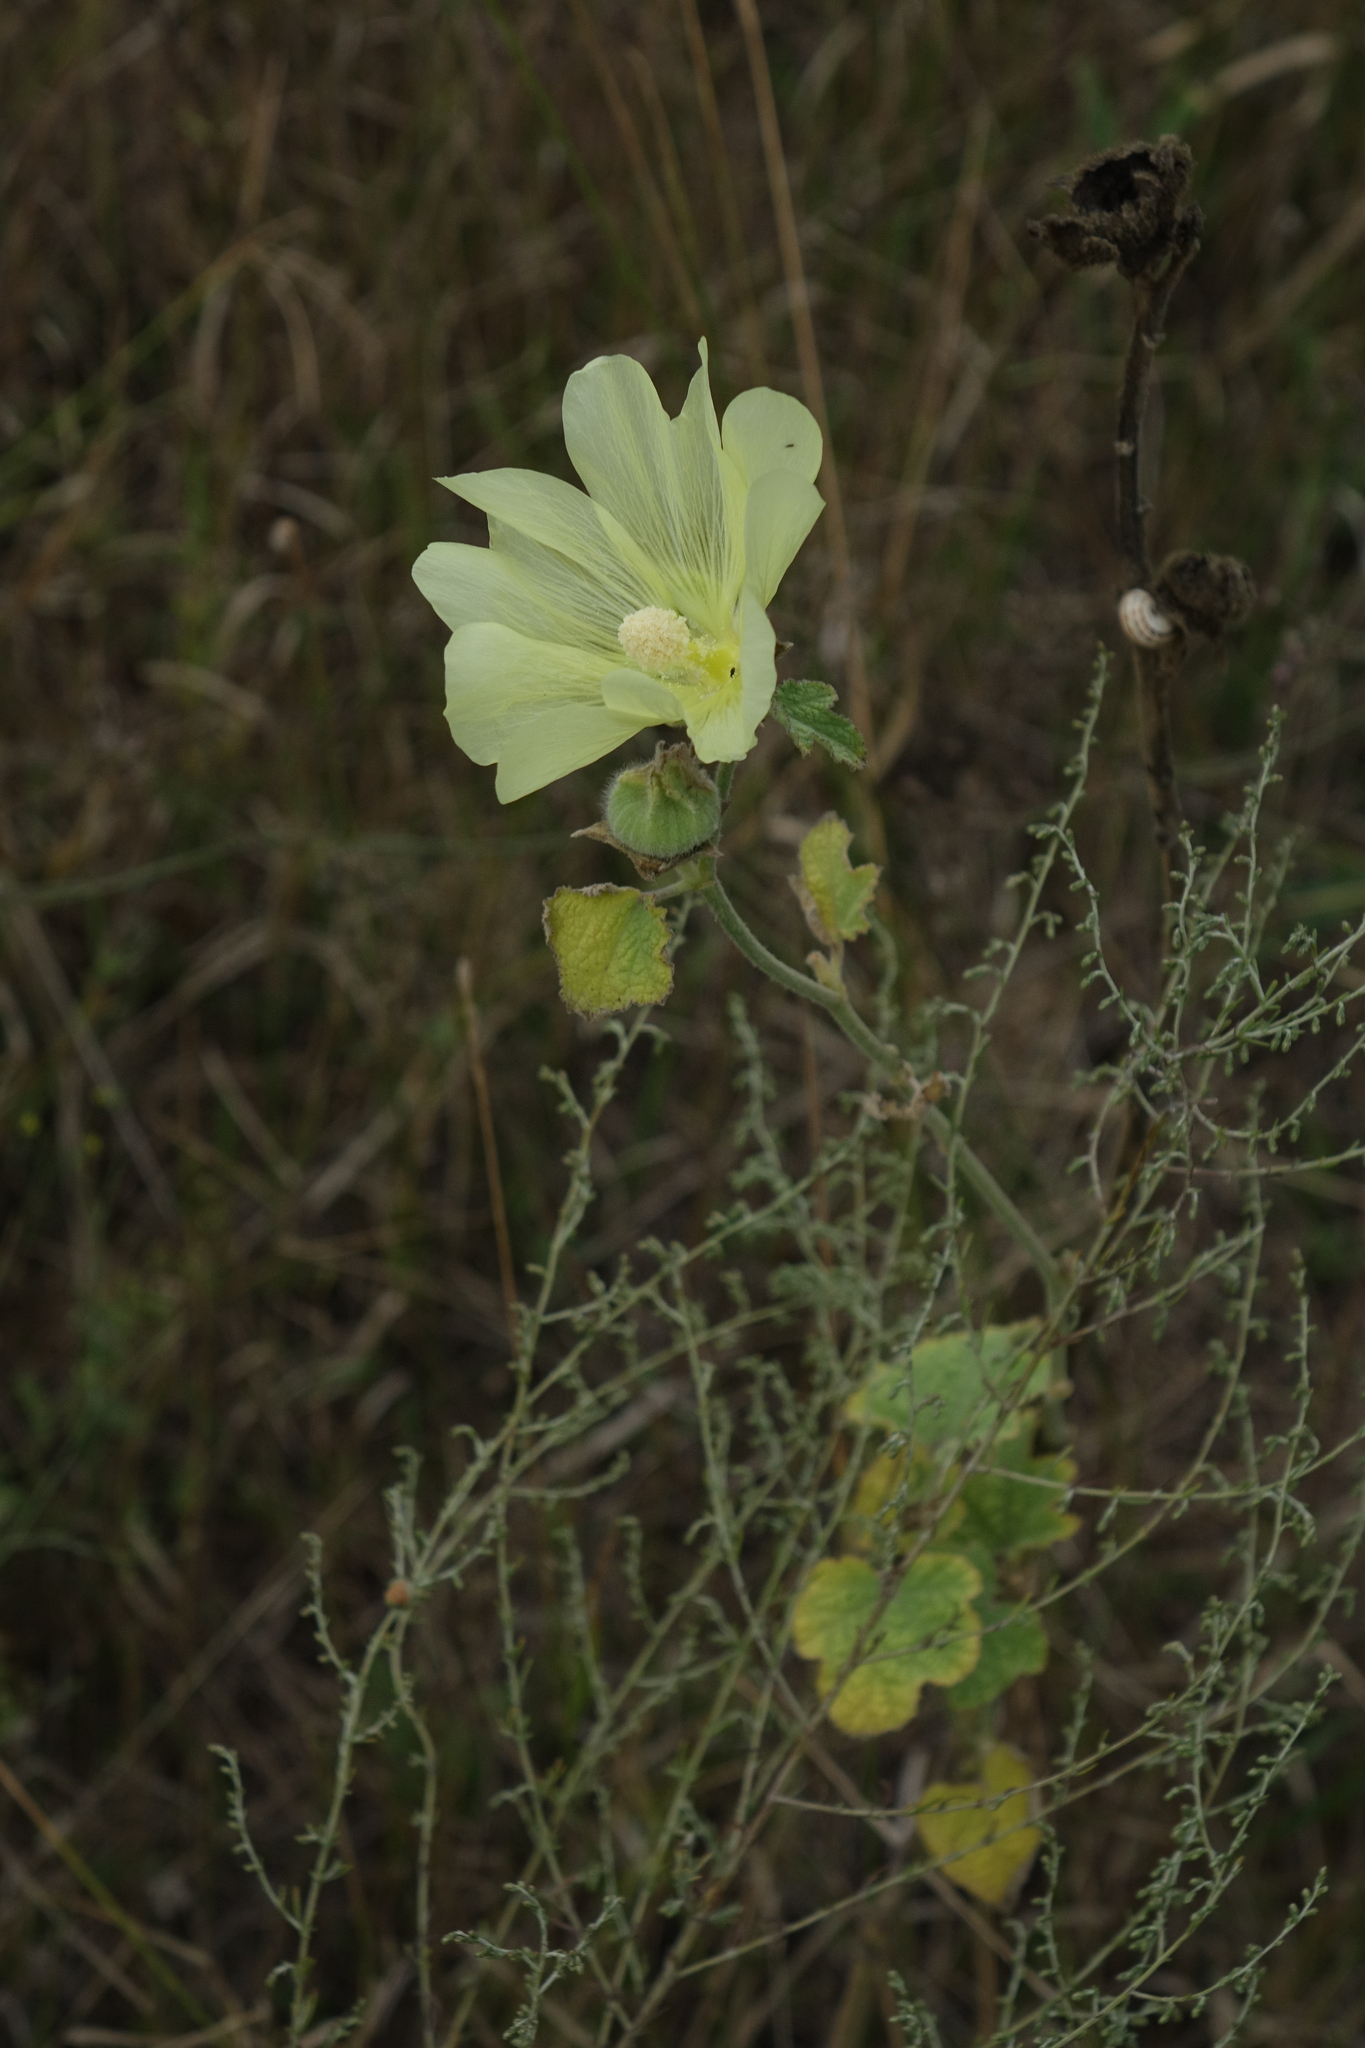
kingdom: Plantae
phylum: Tracheophyta
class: Magnoliopsida
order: Malvales
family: Malvaceae
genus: Alcea
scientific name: Alcea rugosa
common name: Russian hollyhock
